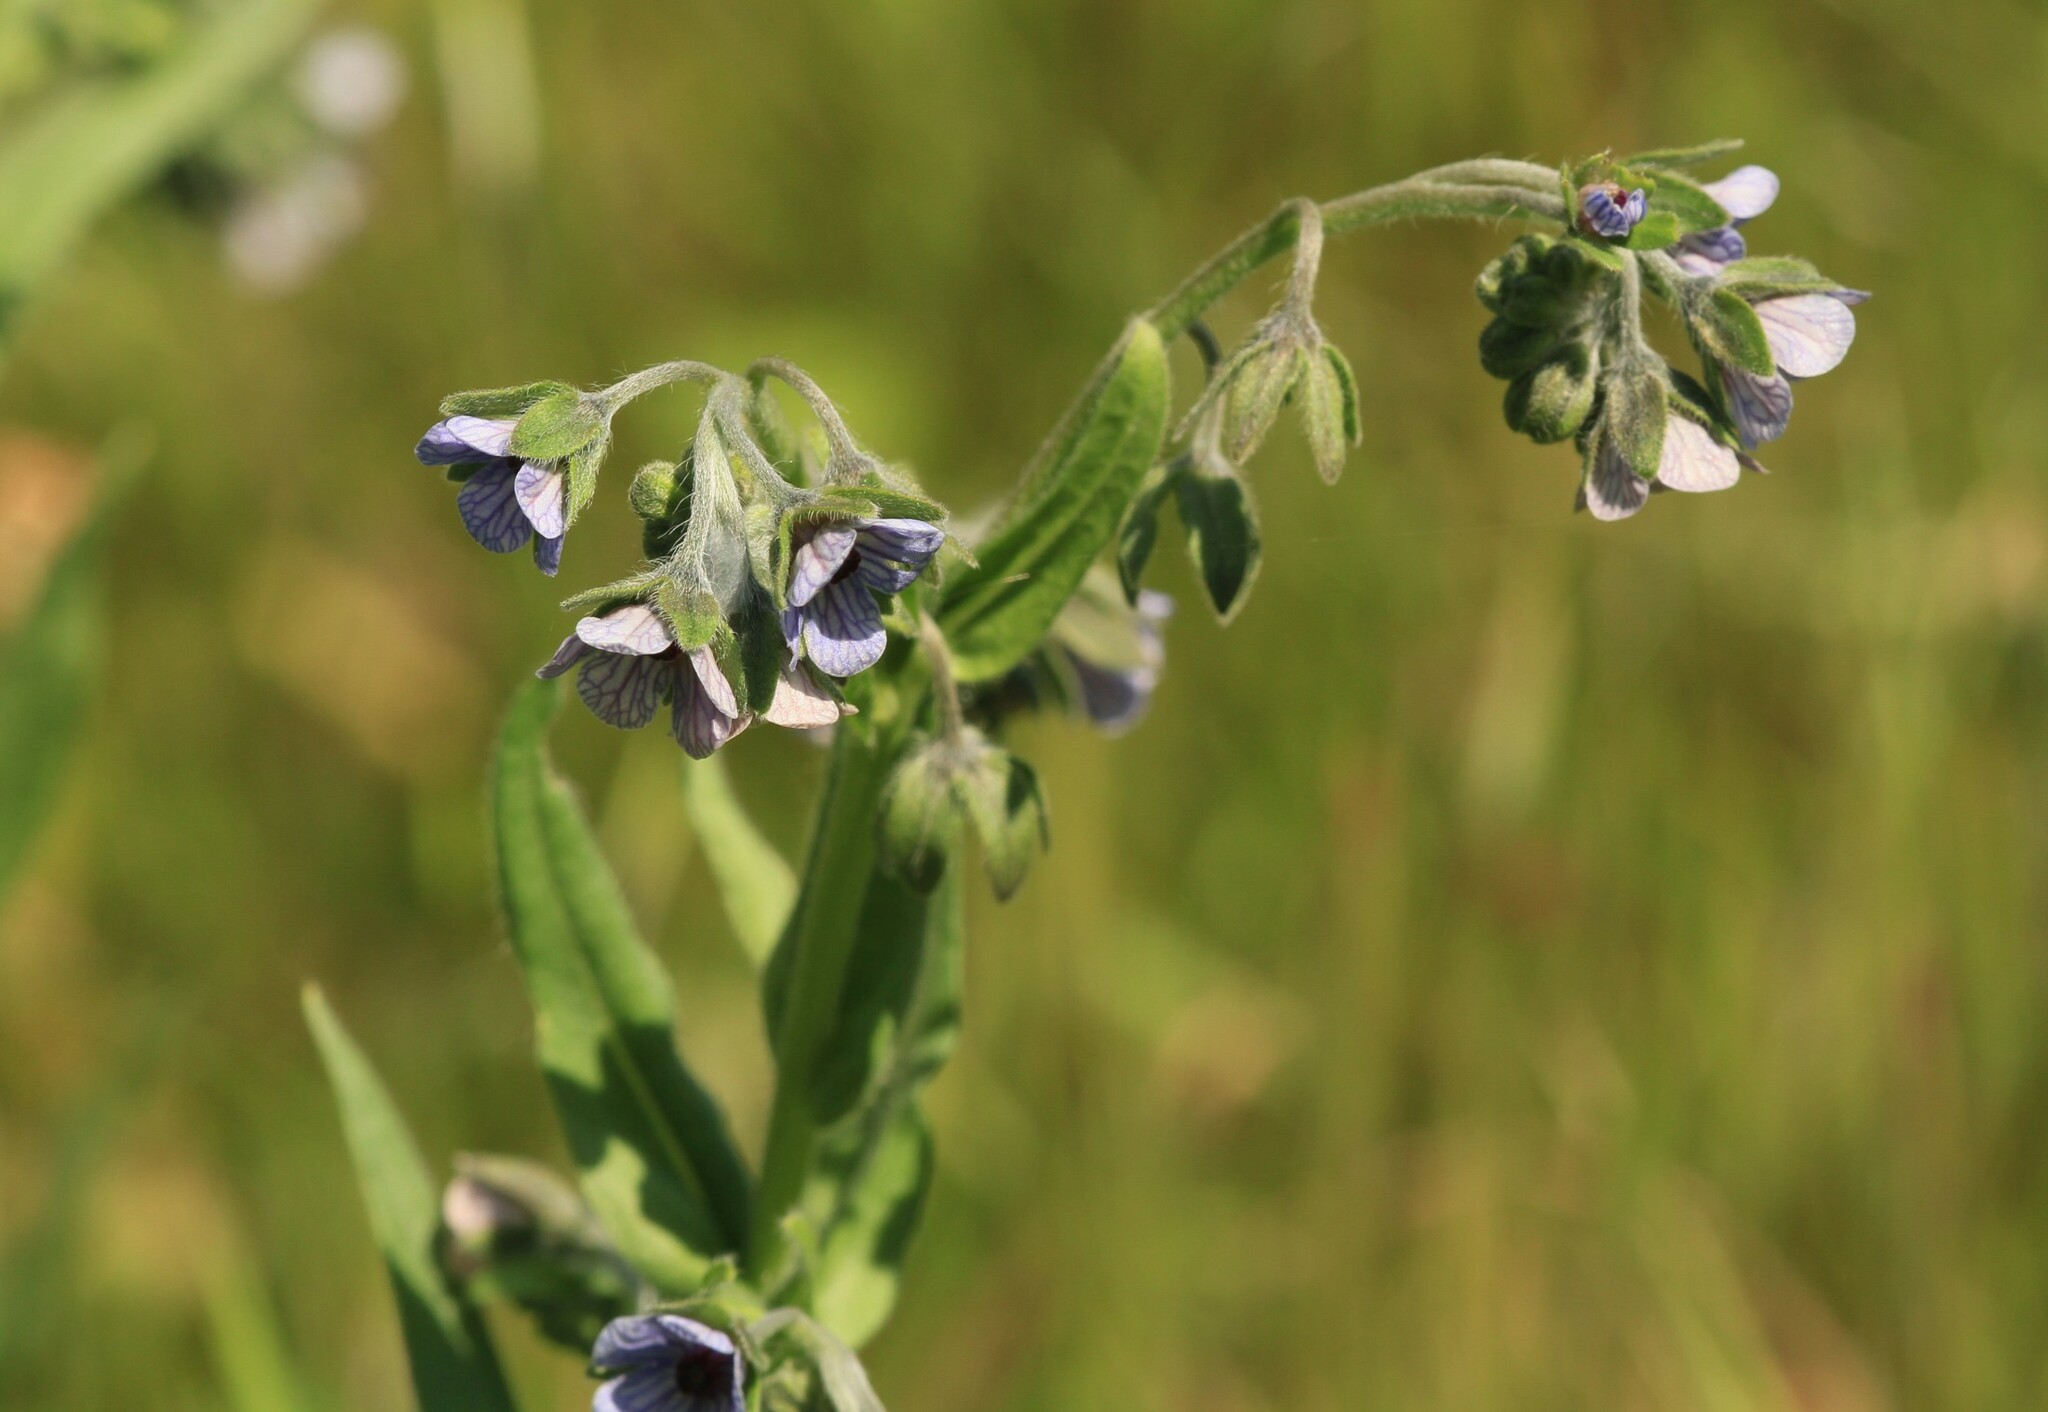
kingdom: Plantae
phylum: Tracheophyta
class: Magnoliopsida
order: Boraginales
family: Boraginaceae
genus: Cynoglossum
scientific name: Cynoglossum creticum
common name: Blue hound's tongue
